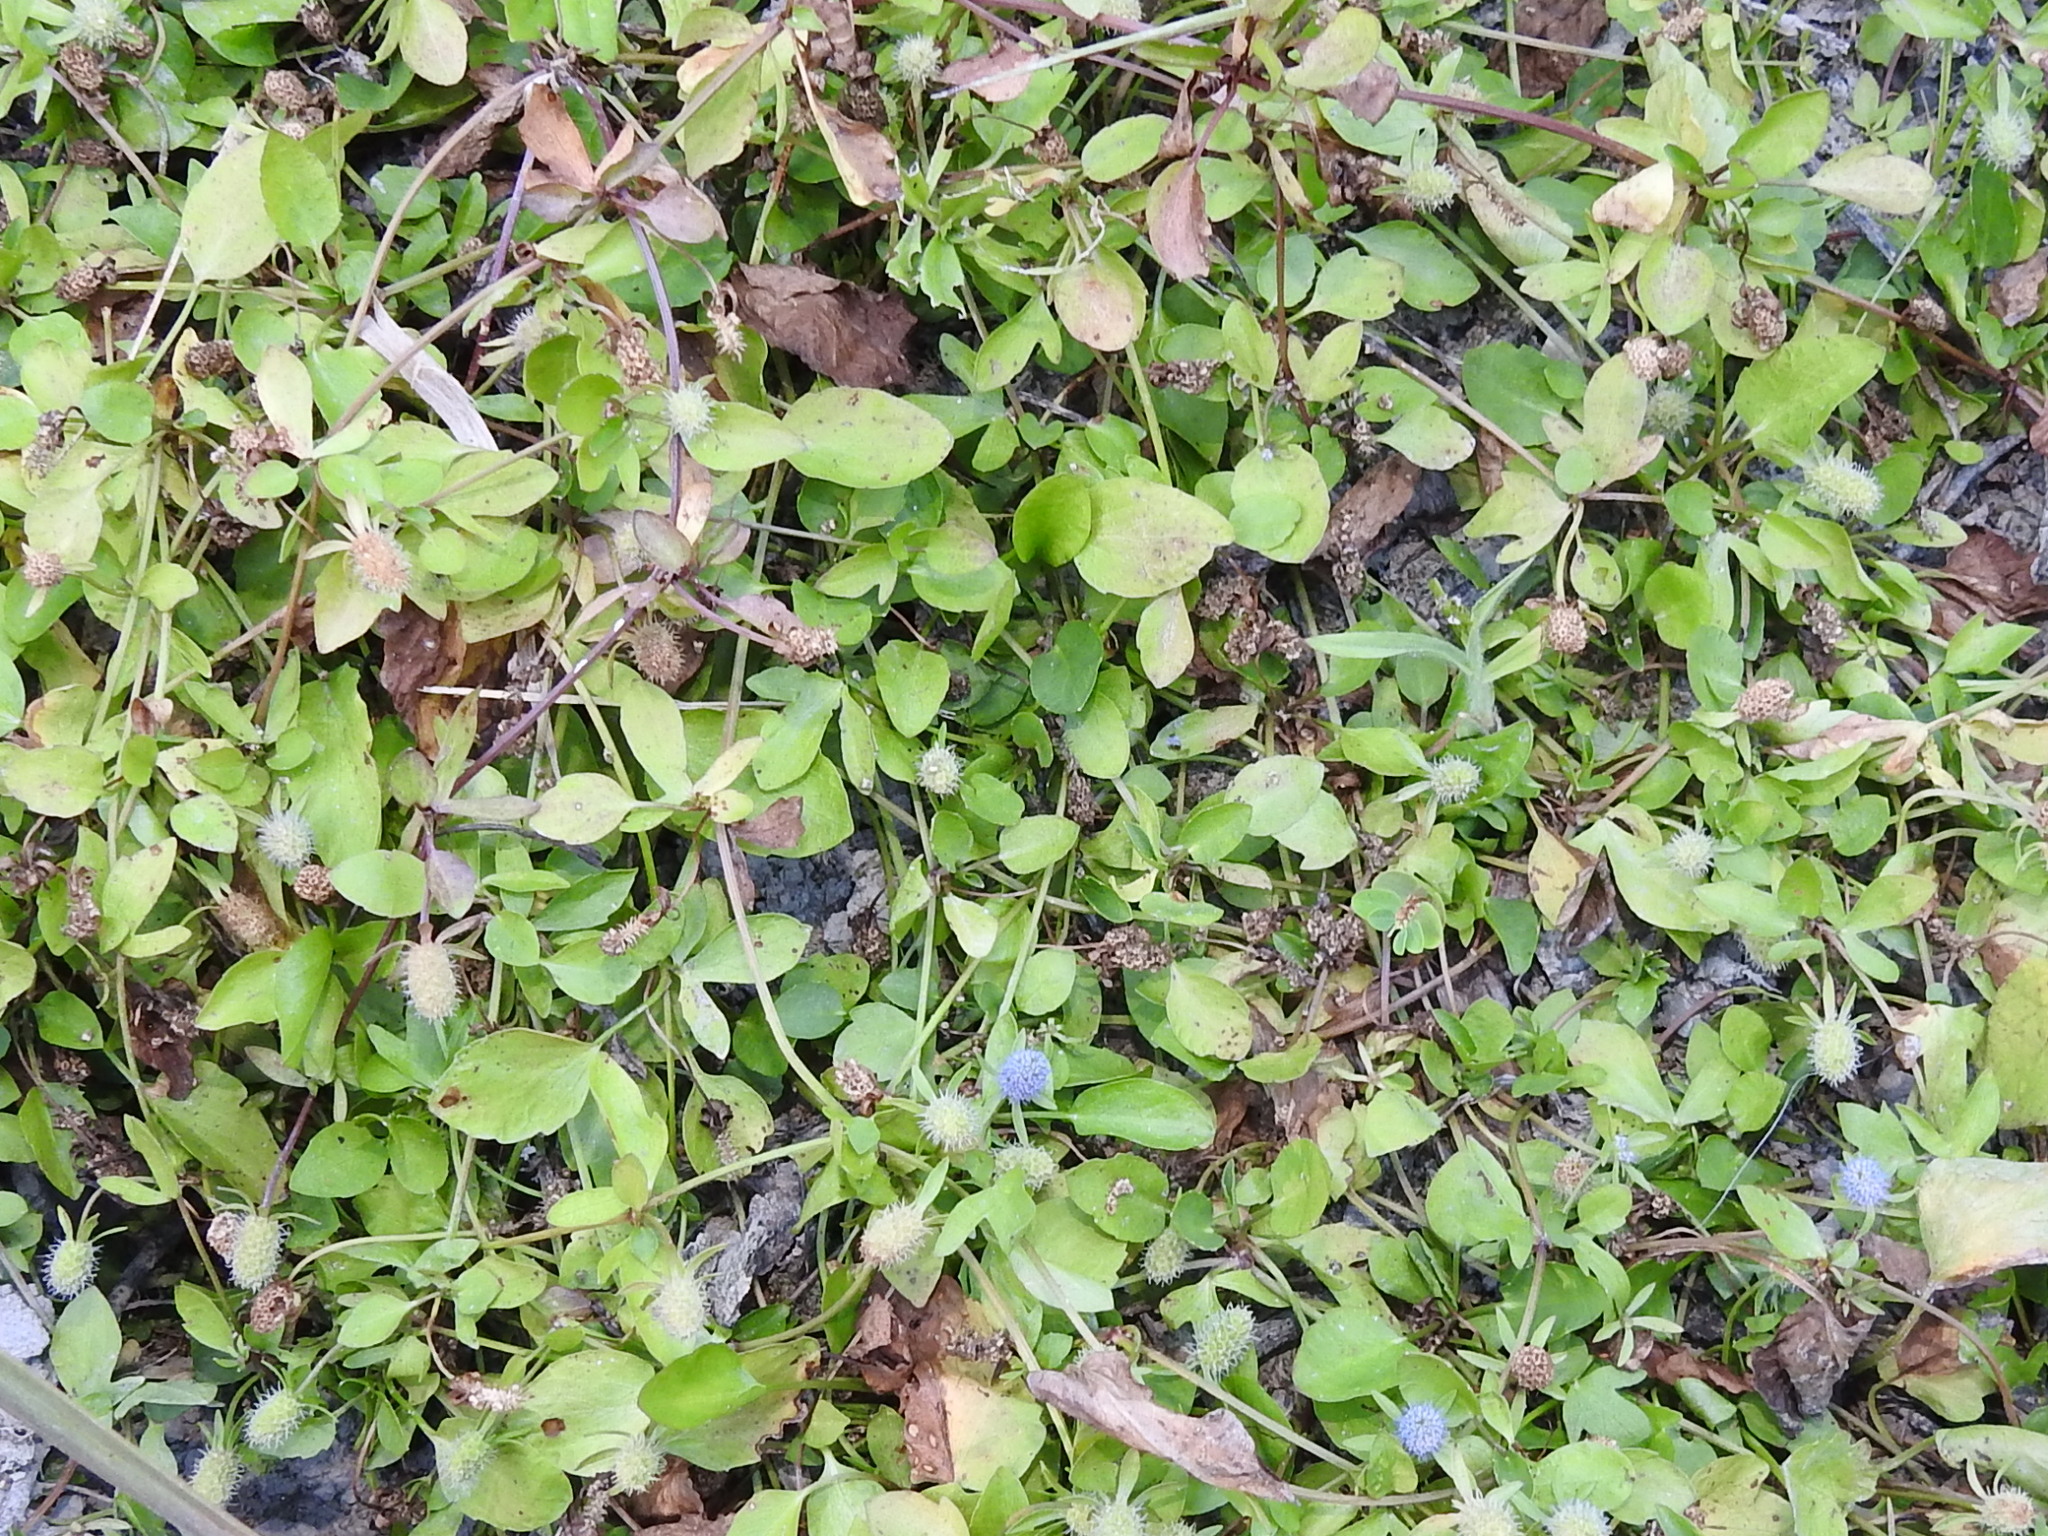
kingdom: Plantae
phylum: Tracheophyta
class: Magnoliopsida
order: Apiales
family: Apiaceae
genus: Eryngium
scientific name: Eryngium prostratum
